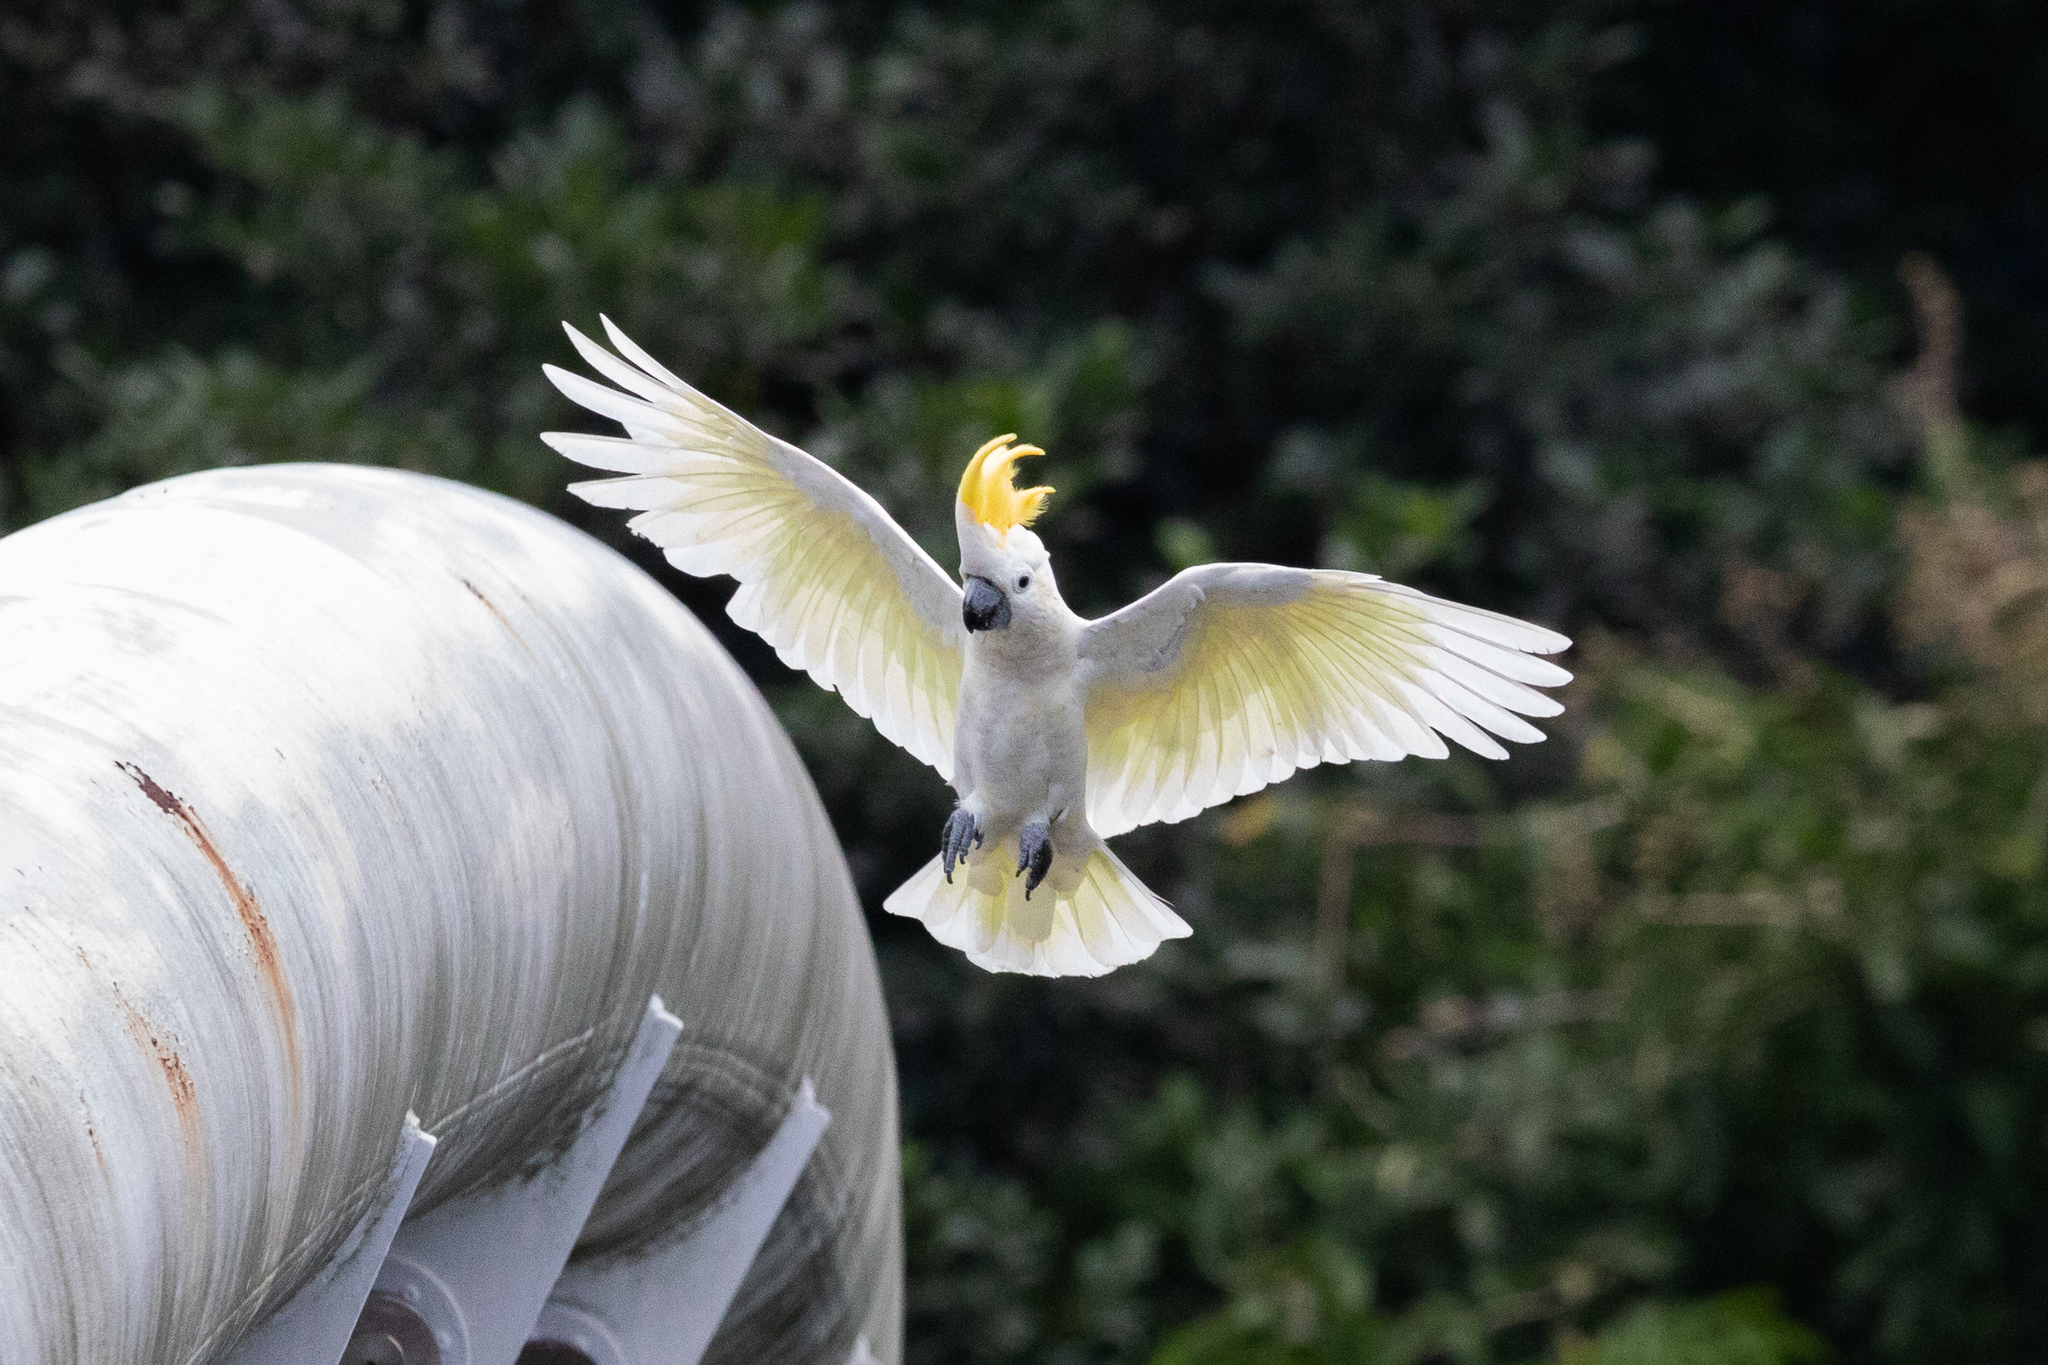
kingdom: Animalia
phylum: Chordata
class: Aves
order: Psittaciformes
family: Psittacidae
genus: Cacatua
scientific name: Cacatua sulphurea
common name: Yellow-crested cockatoo
